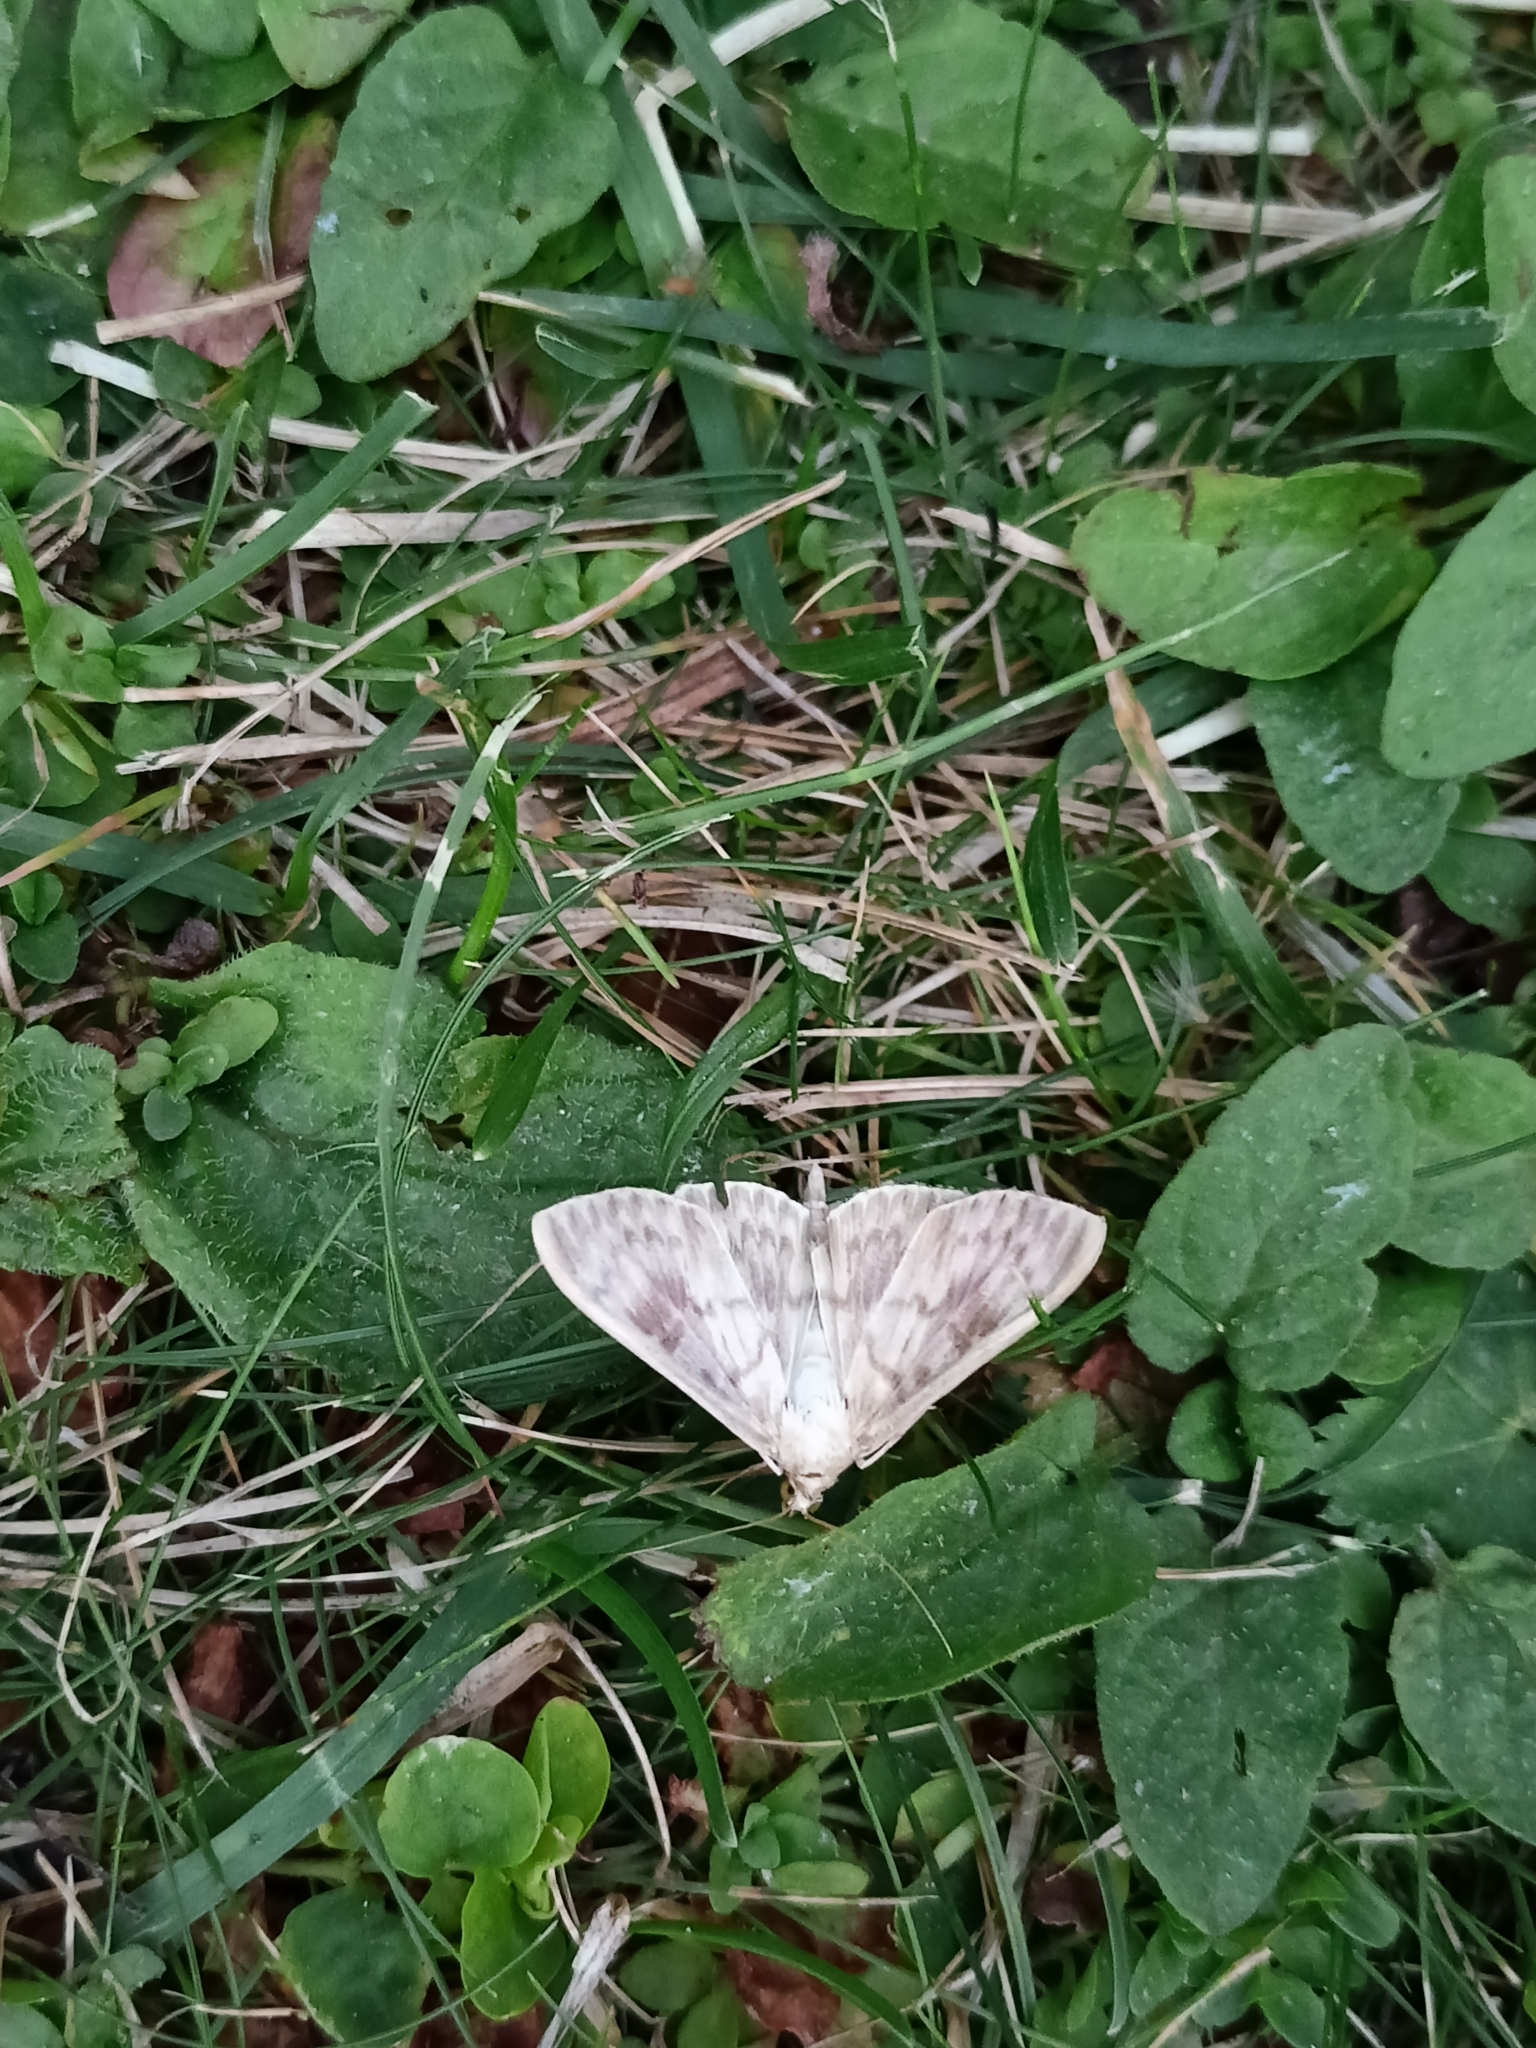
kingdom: Animalia
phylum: Arthropoda
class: Insecta
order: Lepidoptera
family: Crambidae
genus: Patania
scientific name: Patania ruralis
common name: Mother of pearl
